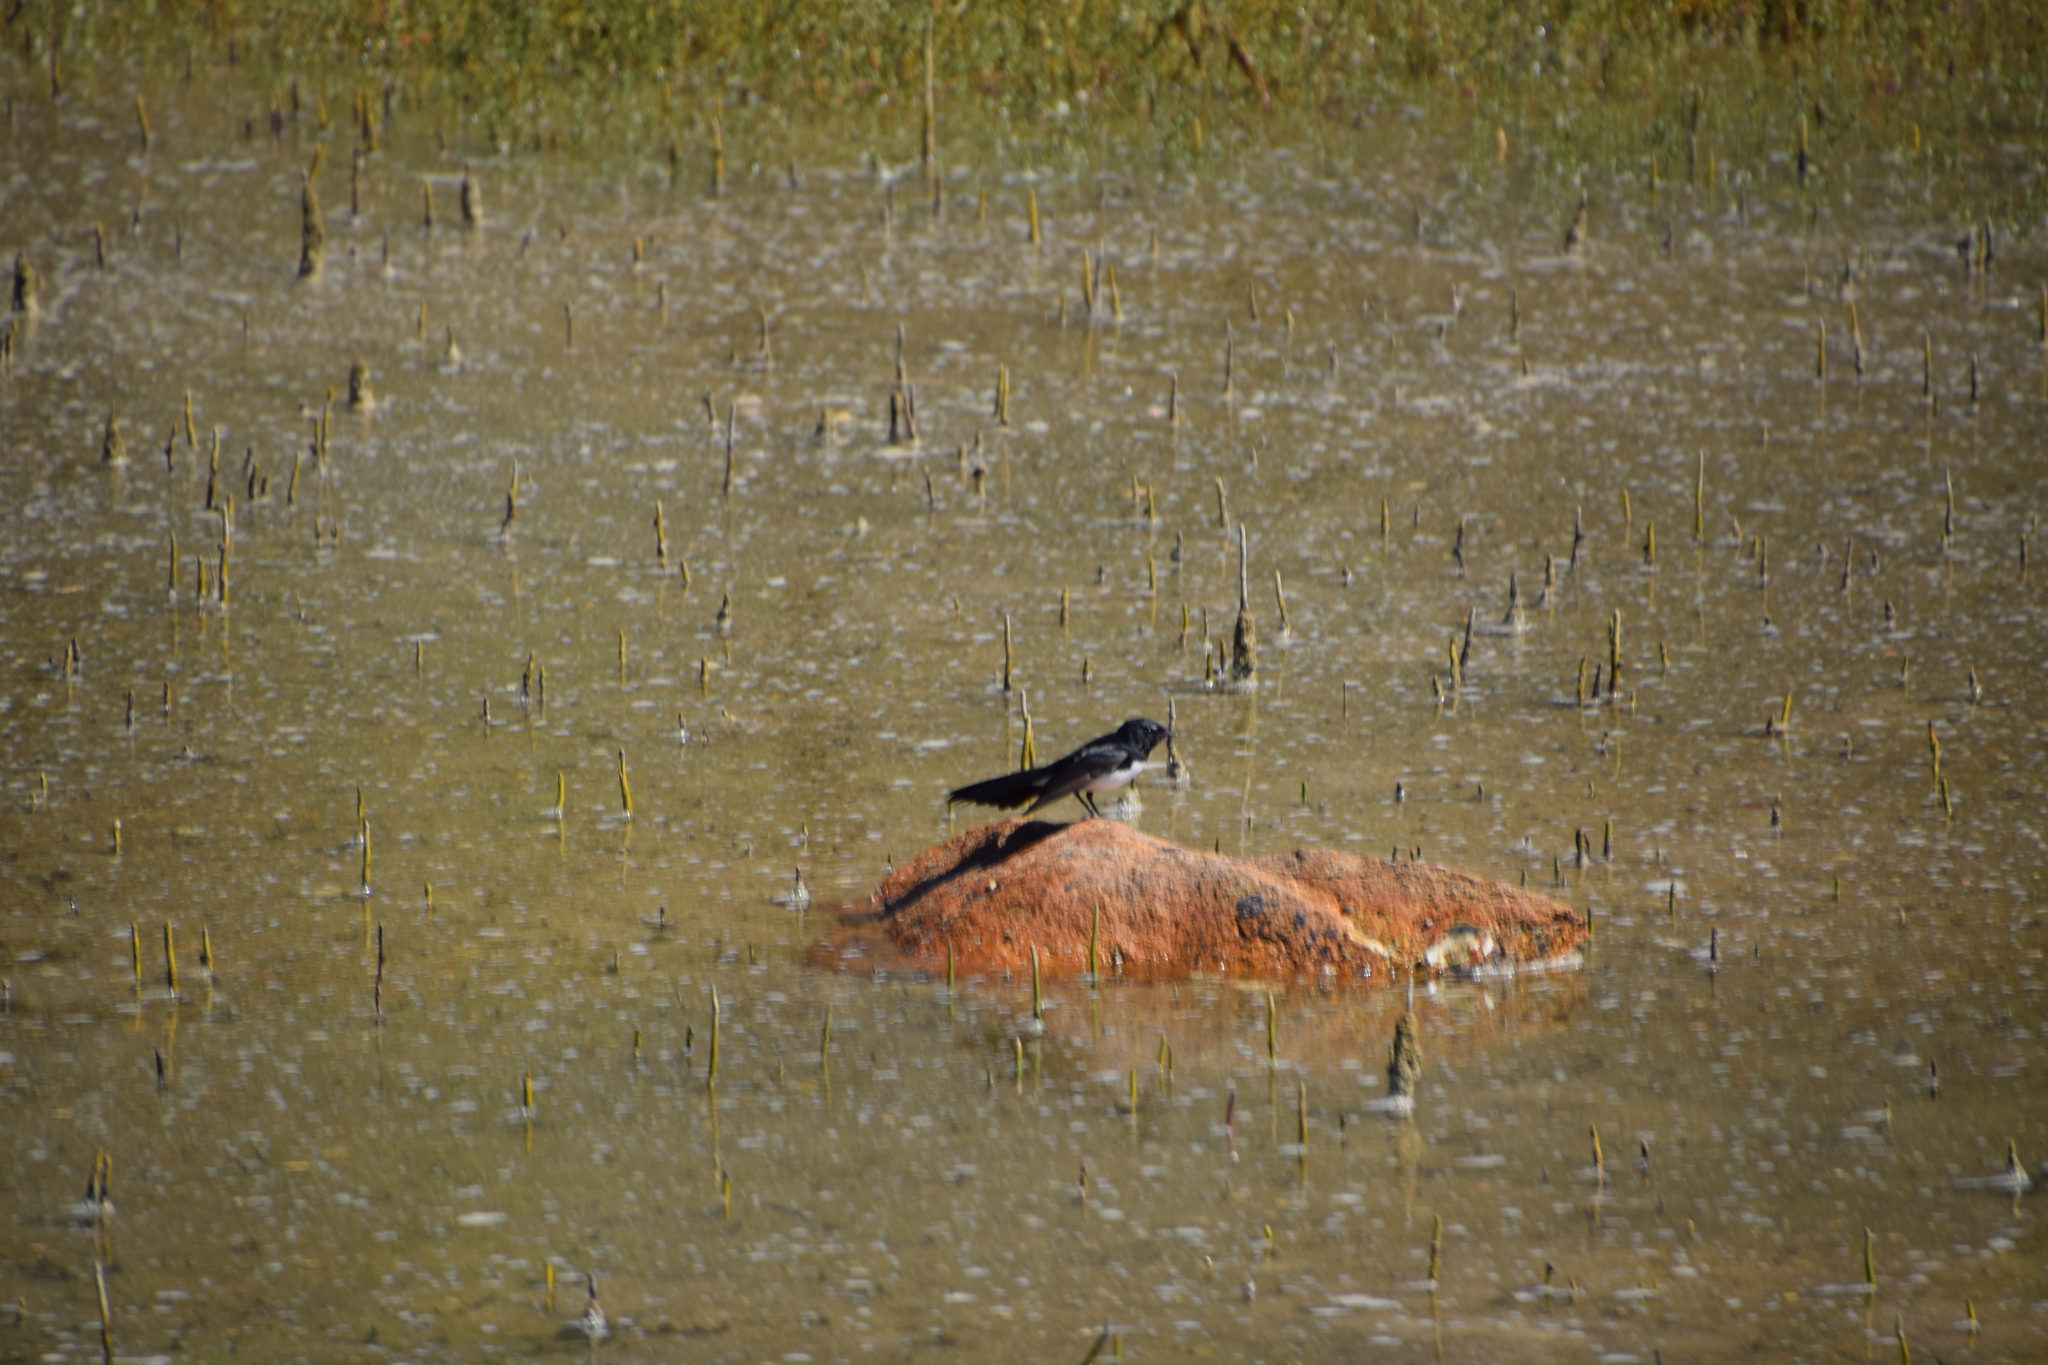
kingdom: Animalia
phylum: Chordata
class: Aves
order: Passeriformes
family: Rhipiduridae
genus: Rhipidura
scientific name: Rhipidura leucophrys
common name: Willie wagtail
